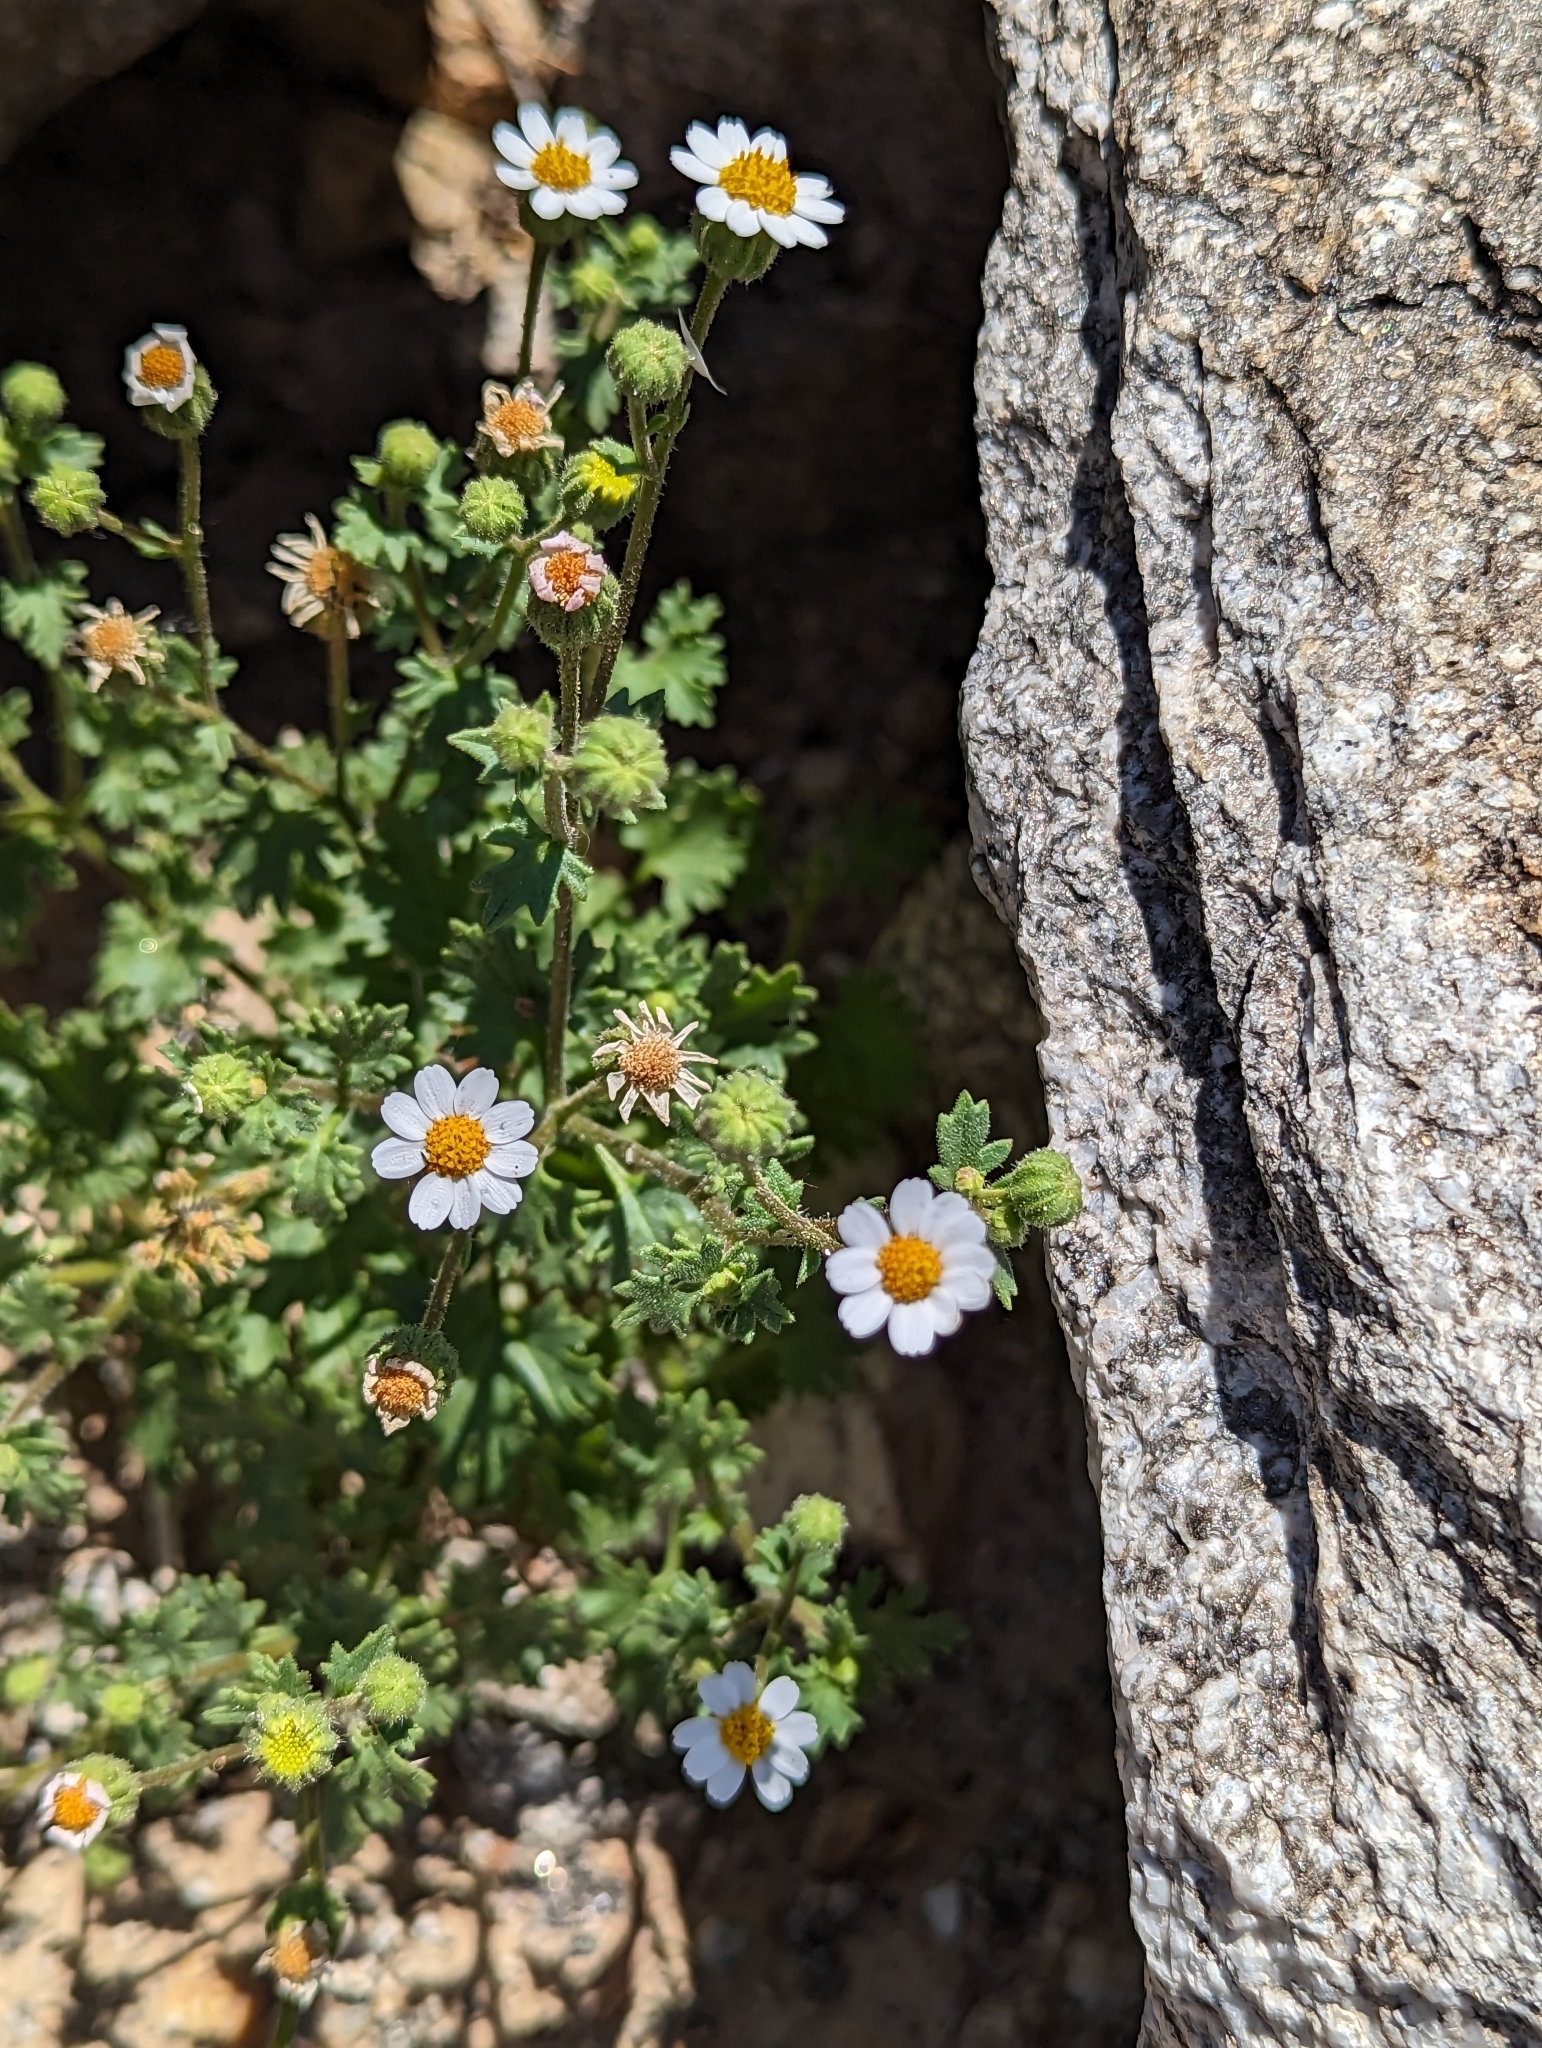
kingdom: Plantae
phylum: Tracheophyta
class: Magnoliopsida
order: Asterales
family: Asteraceae
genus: Laphamia
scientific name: Laphamia emoryi
